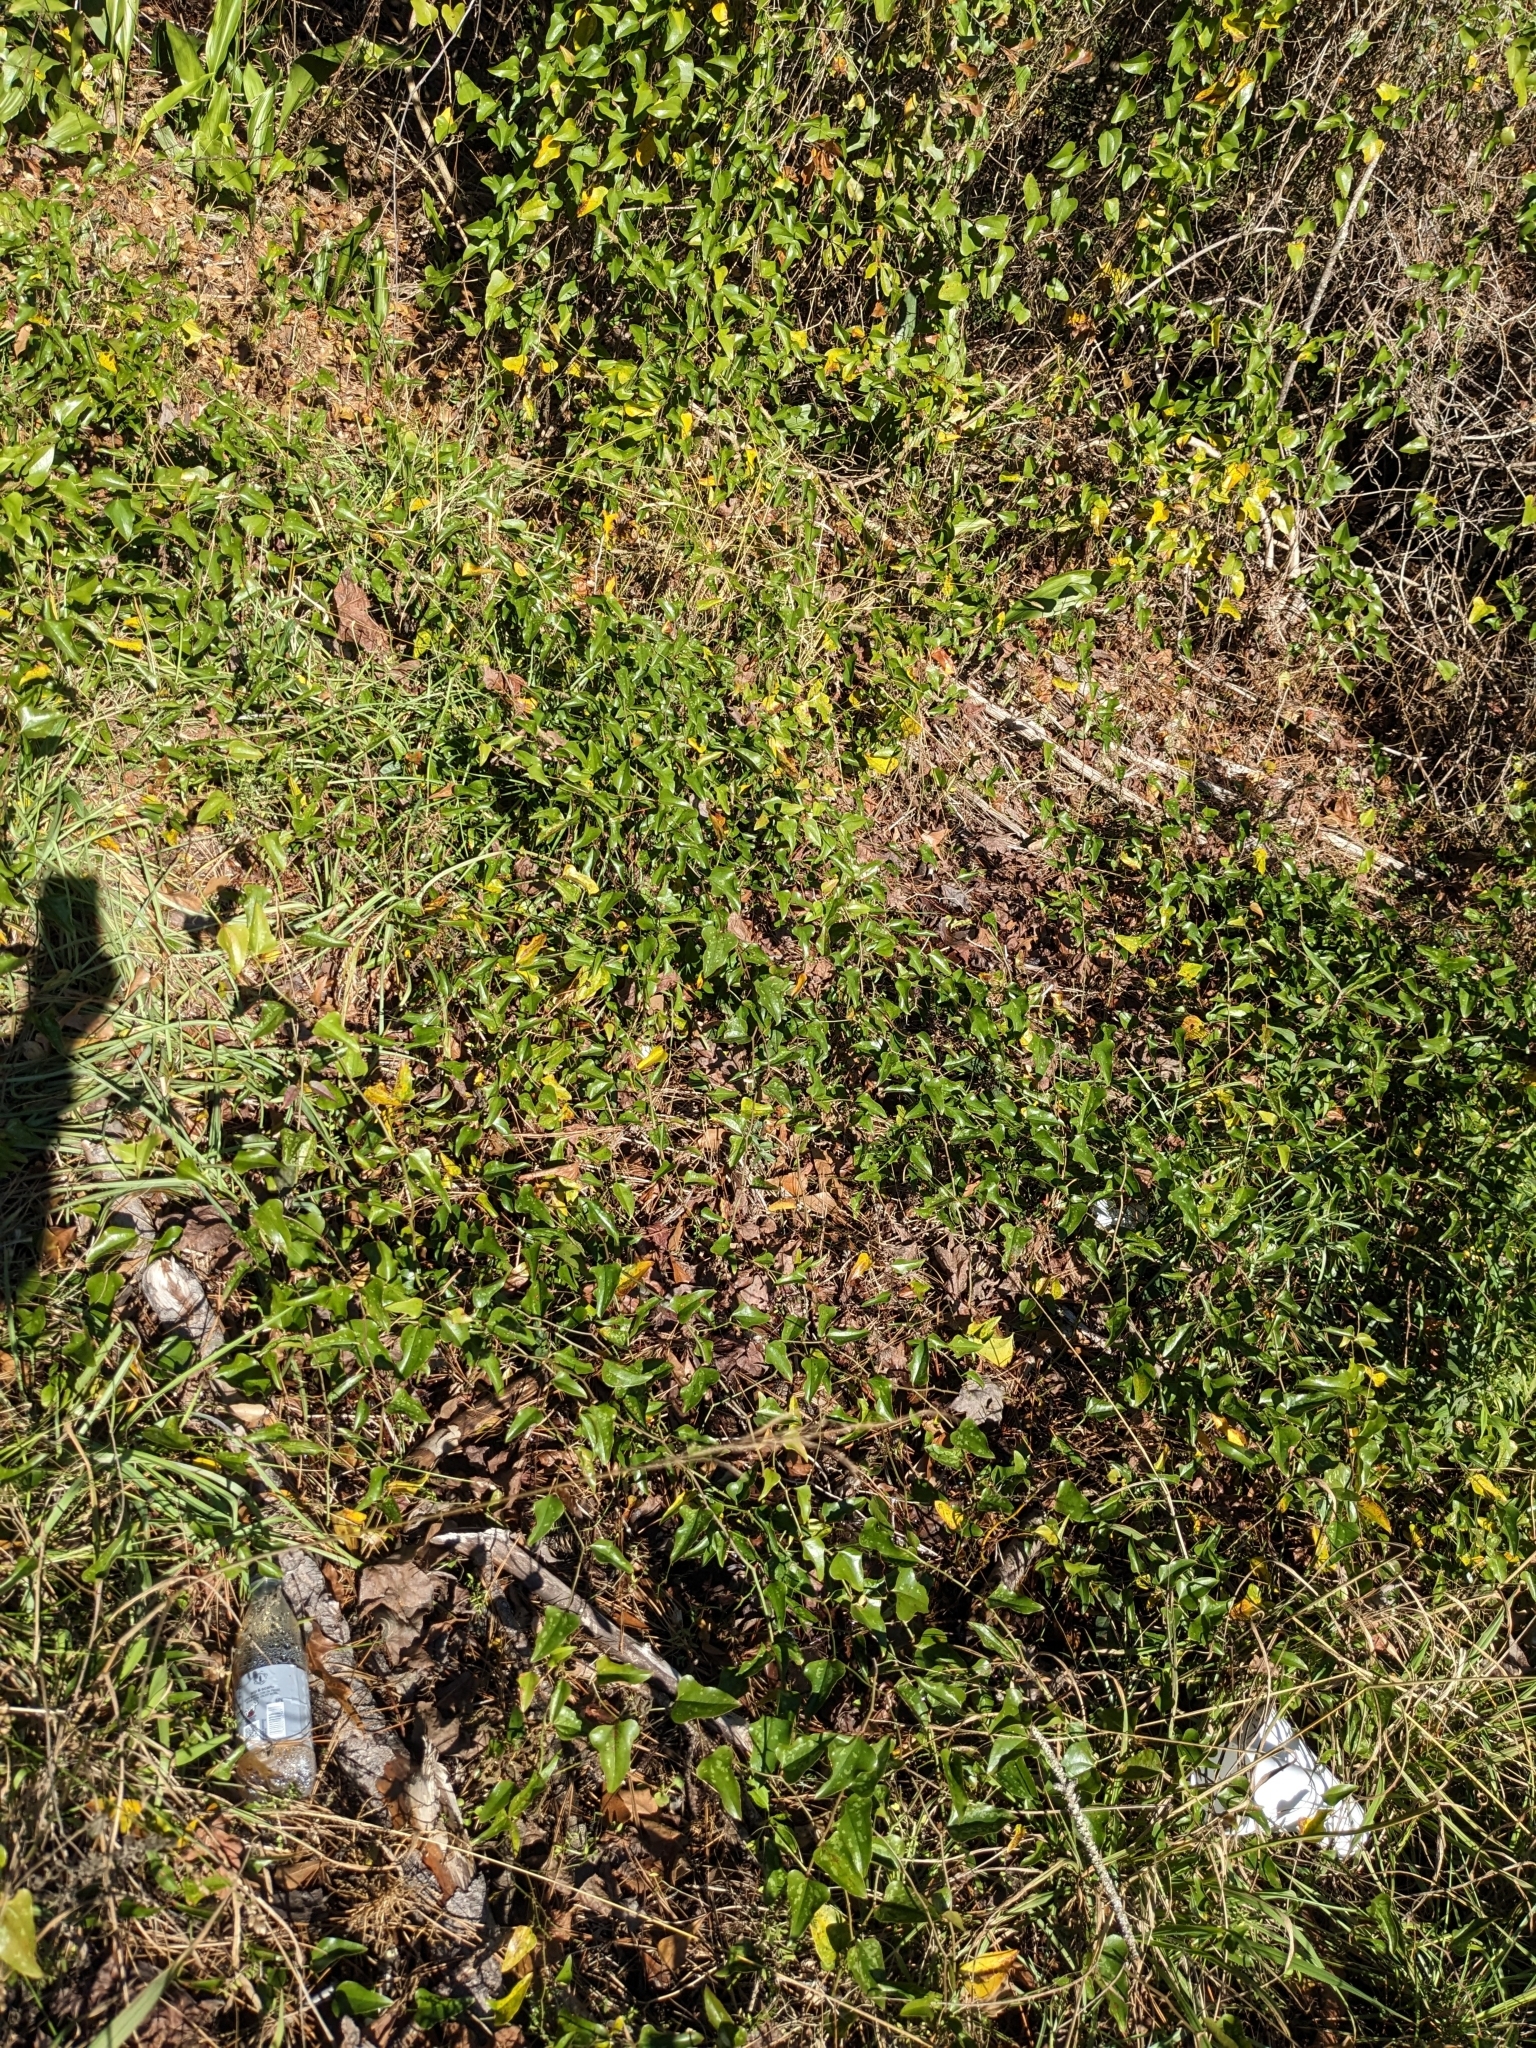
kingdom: Plantae
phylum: Tracheophyta
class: Liliopsida
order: Liliales
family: Smilacaceae
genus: Smilax
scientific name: Smilax bona-nox
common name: Catbrier
